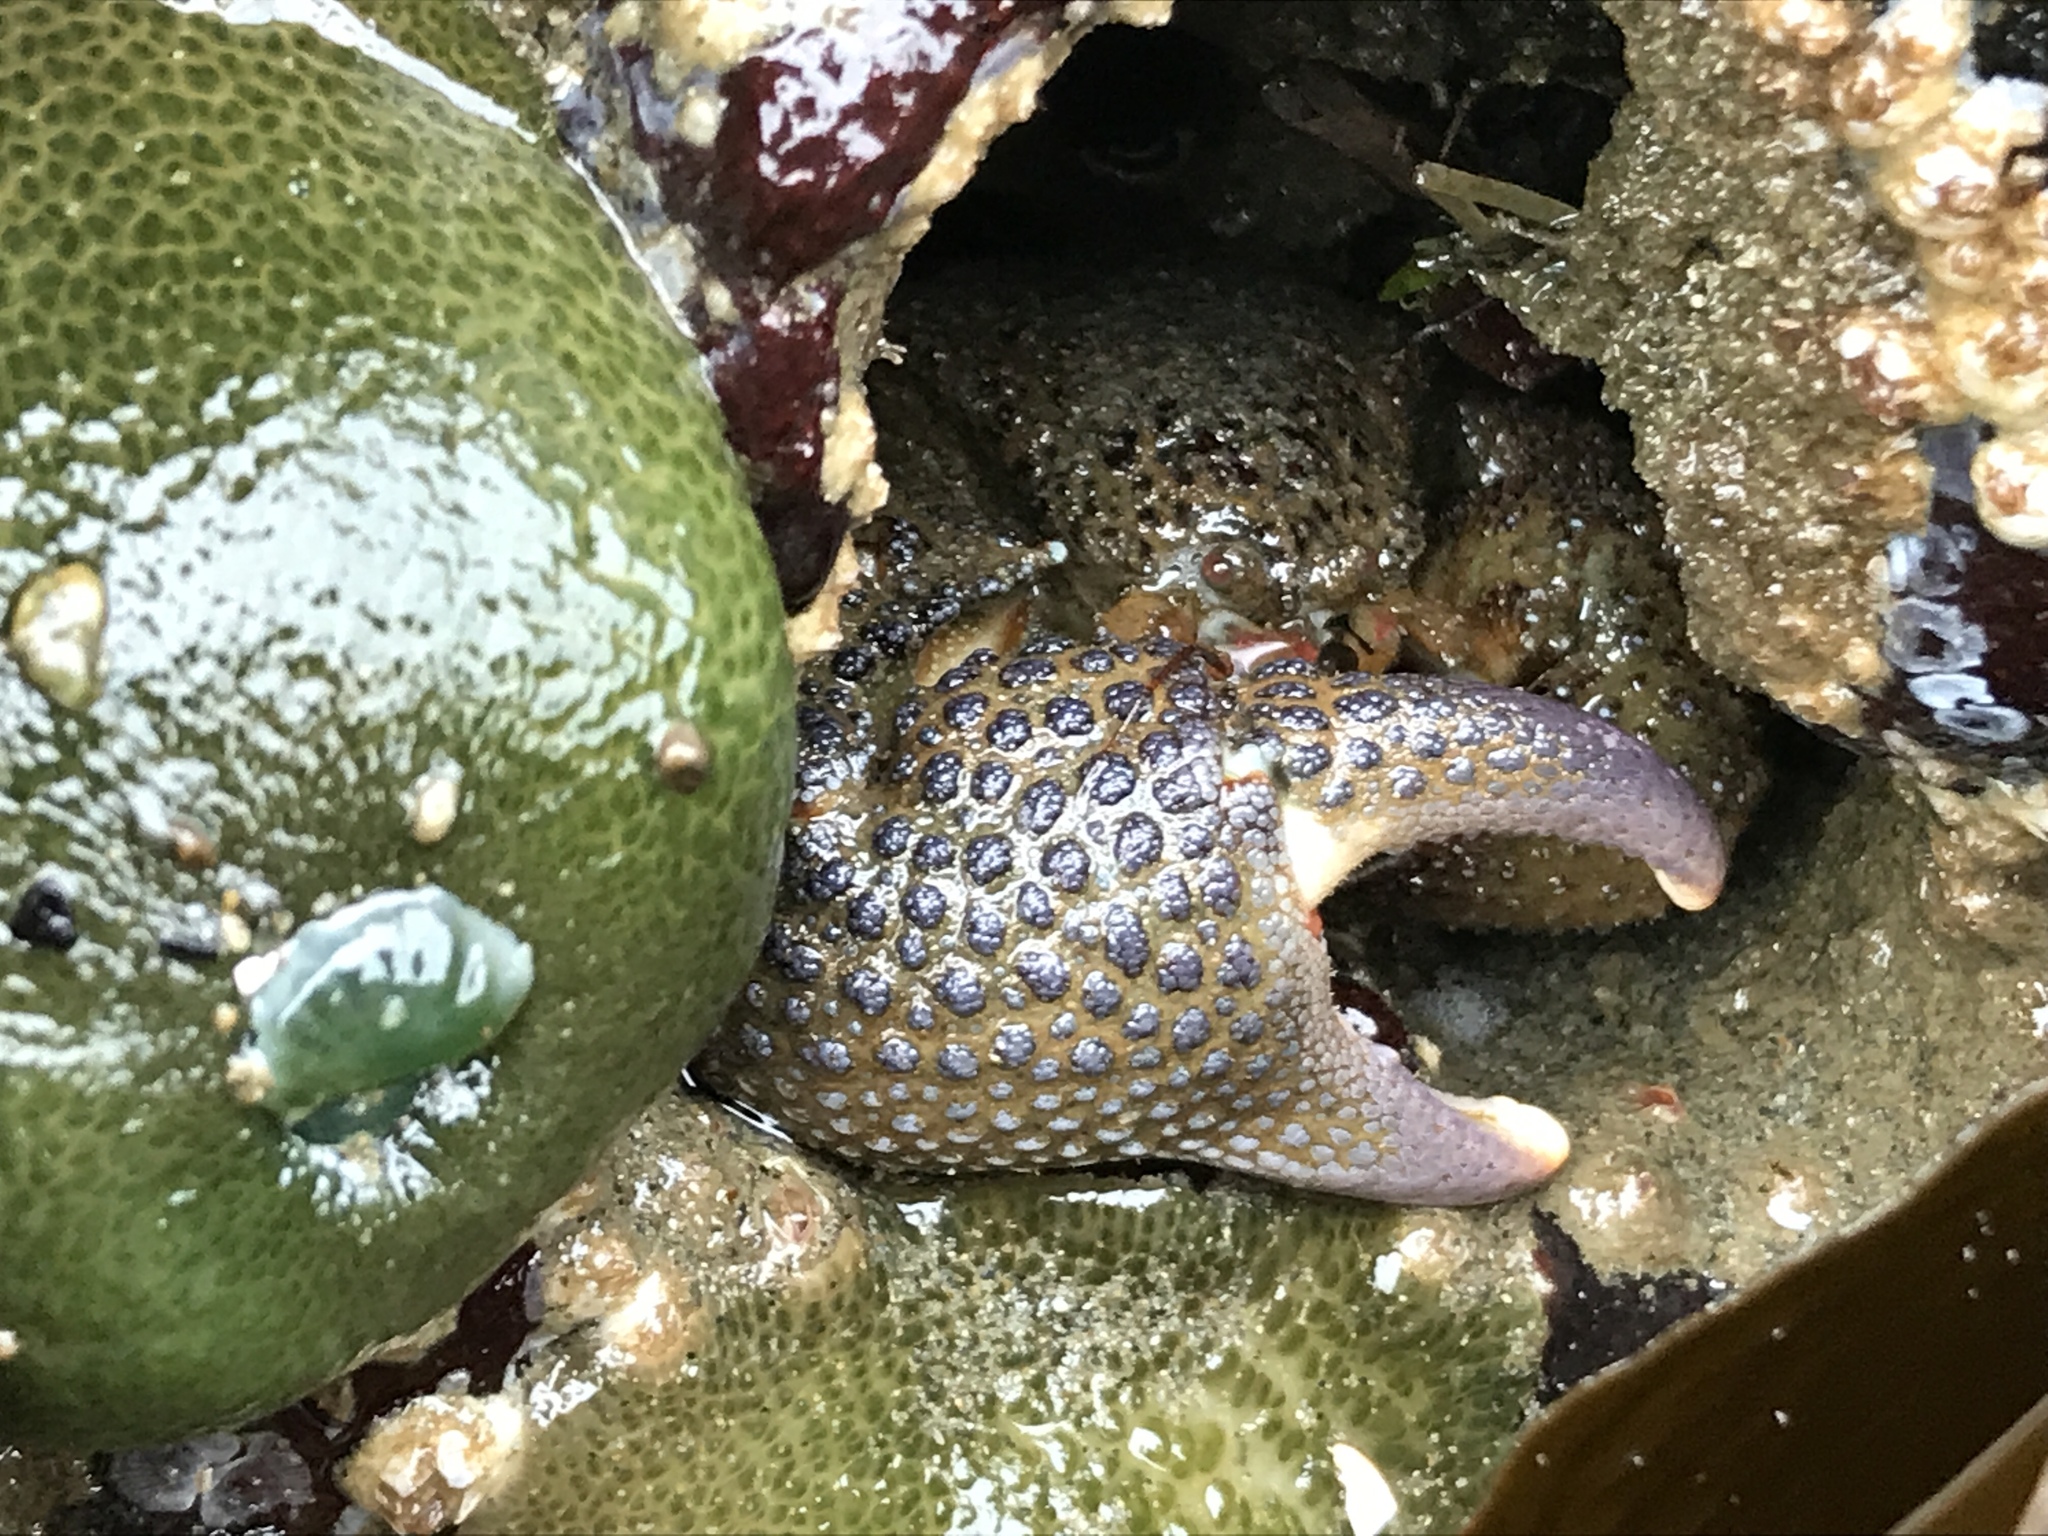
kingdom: Animalia
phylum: Arthropoda
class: Malacostraca
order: Decapoda
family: Hapalogastridae
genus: Oedignathus
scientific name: Oedignathus inermis
